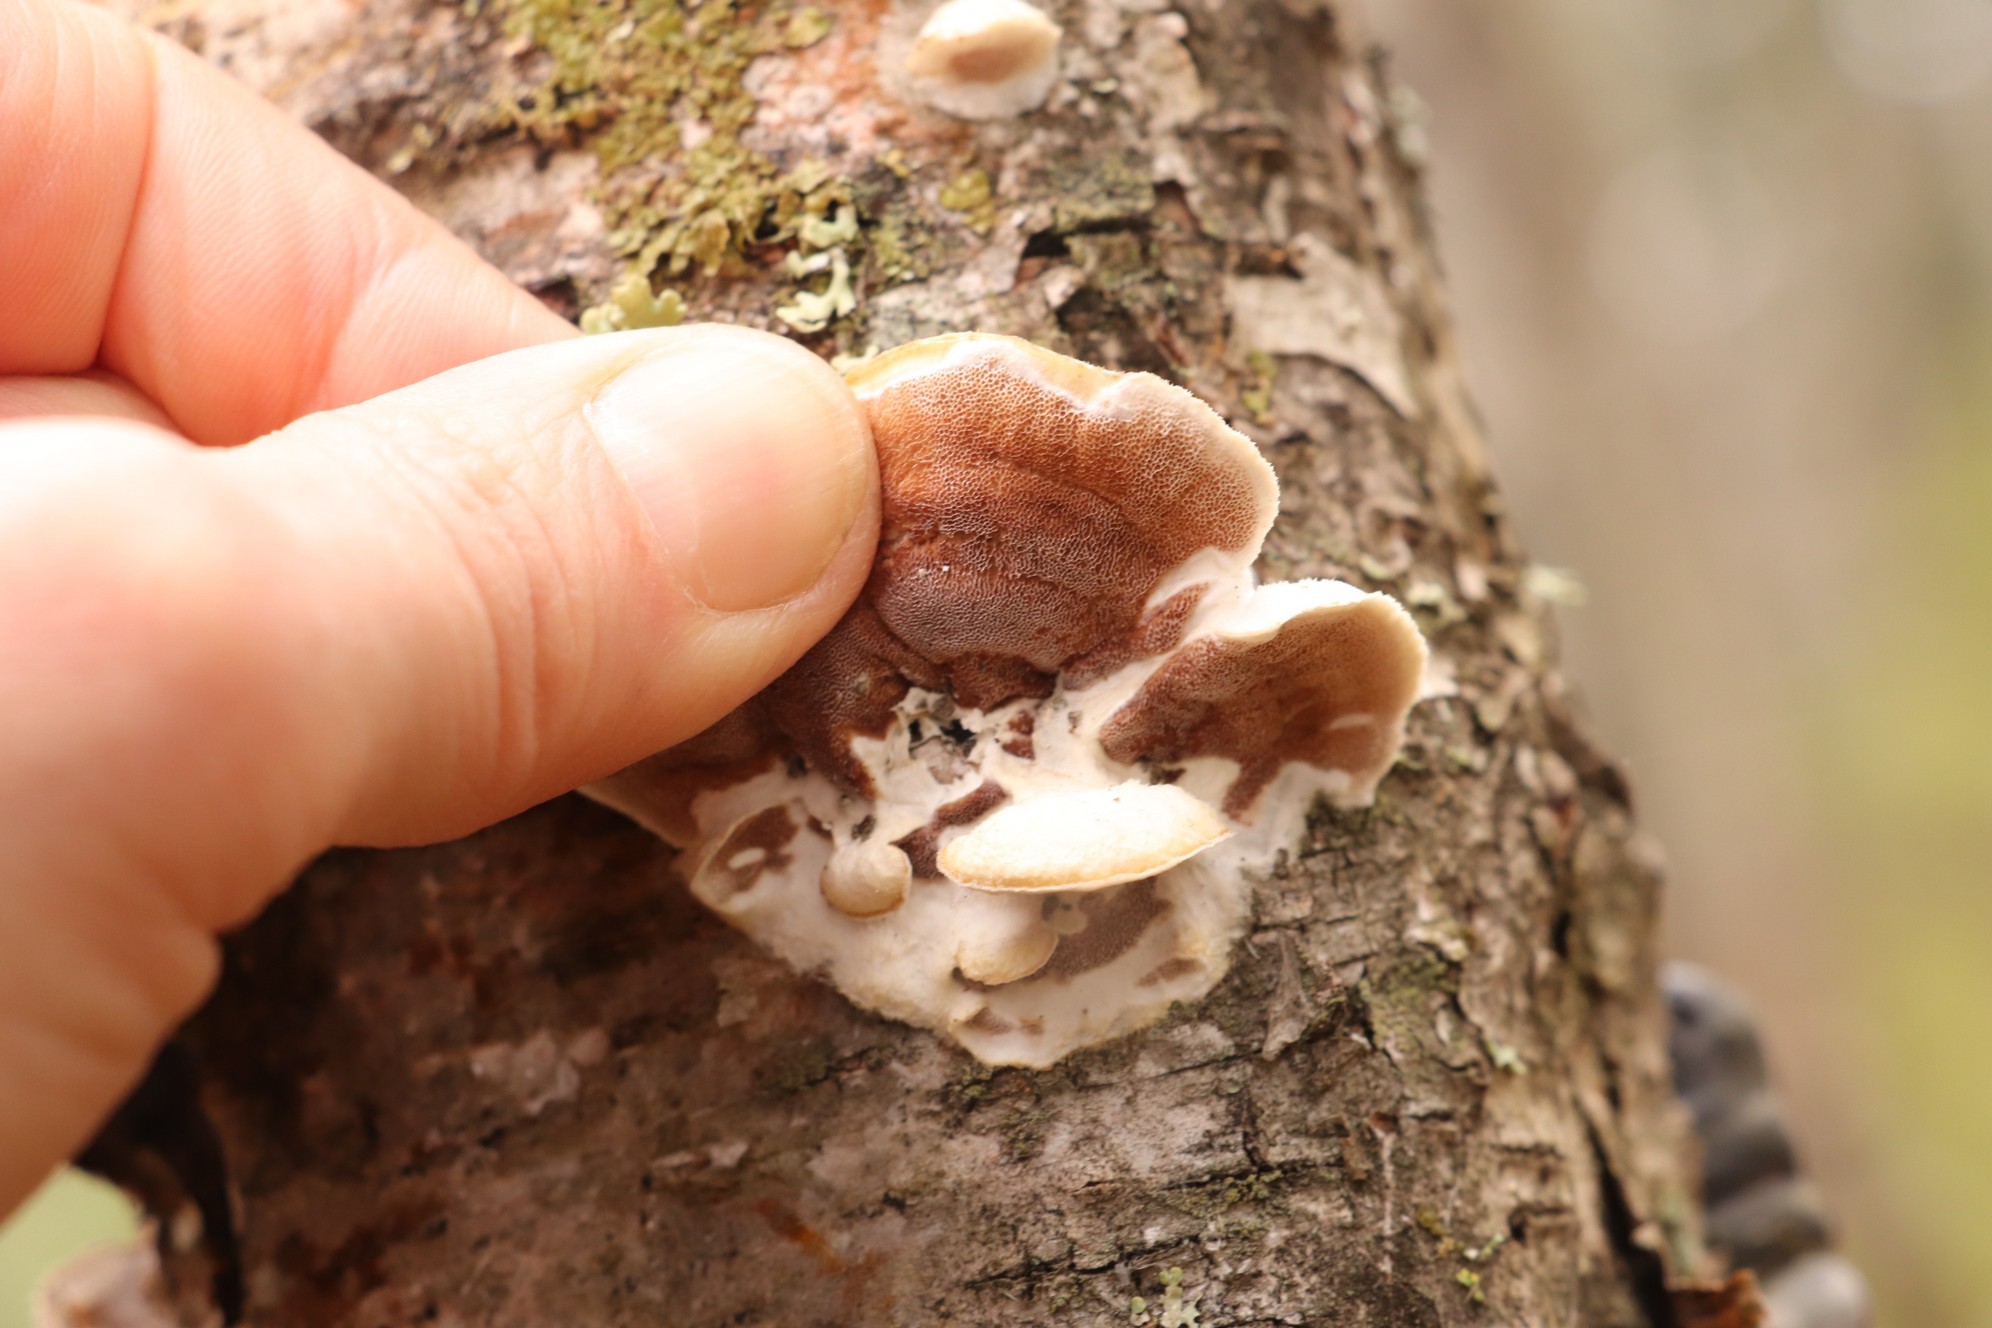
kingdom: Fungi
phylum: Basidiomycota
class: Agaricomycetes
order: Polyporales
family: Irpicaceae
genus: Vitreoporus
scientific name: Vitreoporus dichrous
